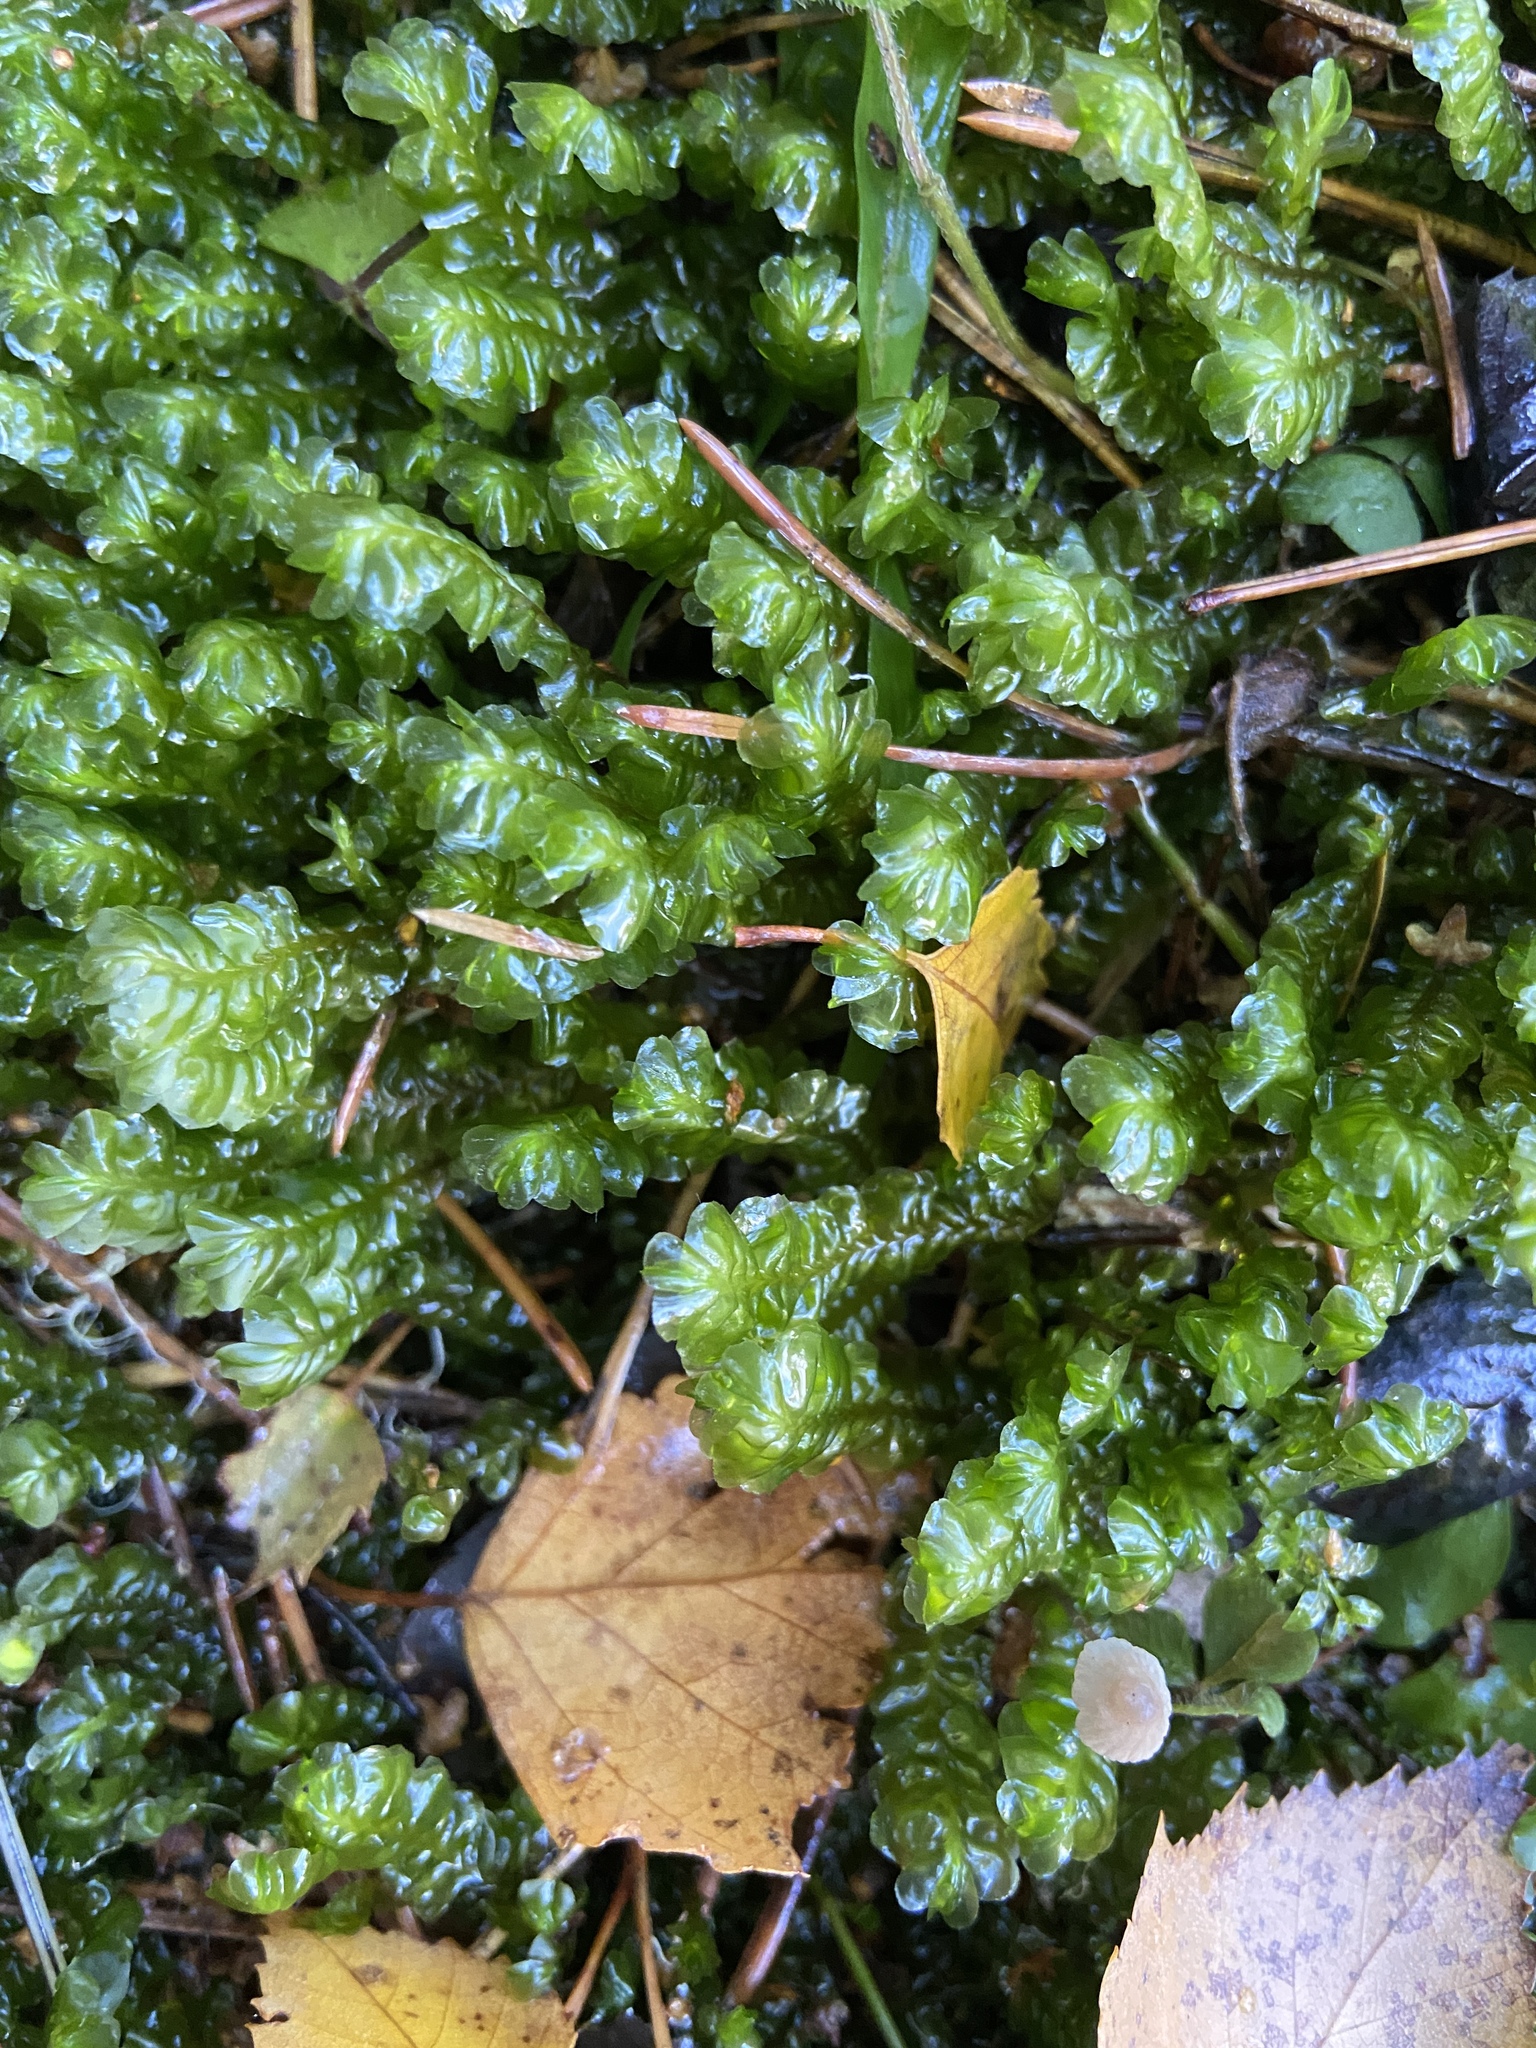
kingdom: Plantae
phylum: Marchantiophyta
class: Jungermanniopsida
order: Jungermanniales
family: Plagiochilaceae
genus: Plagiochila
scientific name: Plagiochila asplenioides
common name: Greater featherwort
